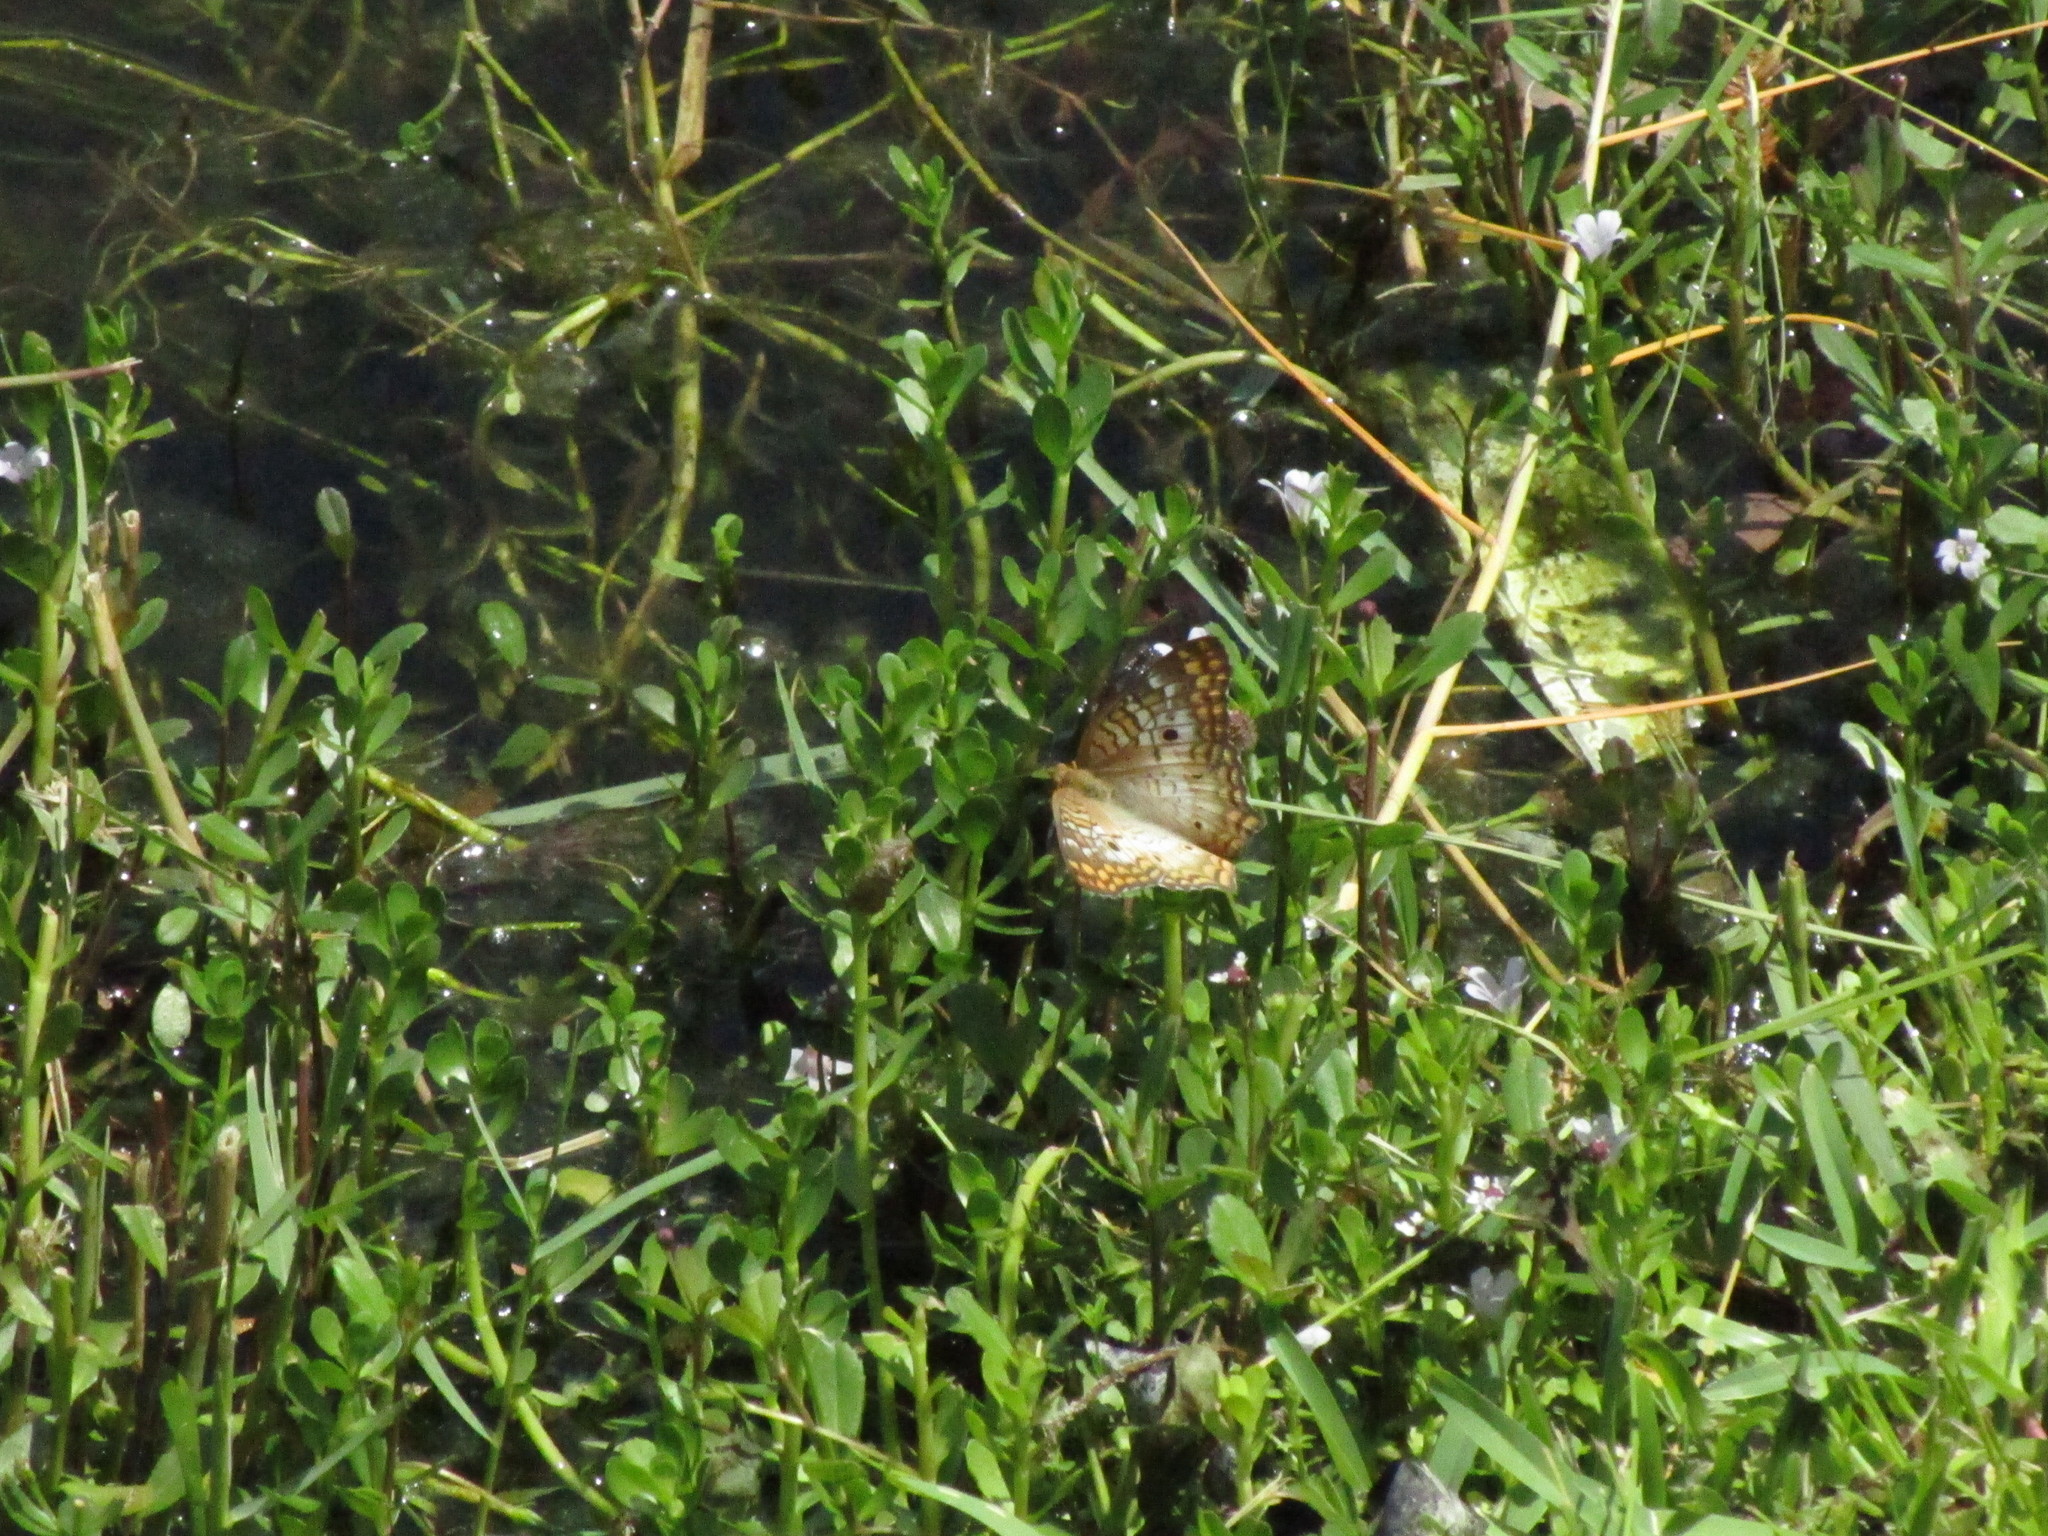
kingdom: Animalia
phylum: Arthropoda
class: Insecta
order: Lepidoptera
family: Nymphalidae
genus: Anartia
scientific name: Anartia jatrophae
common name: White peacock
